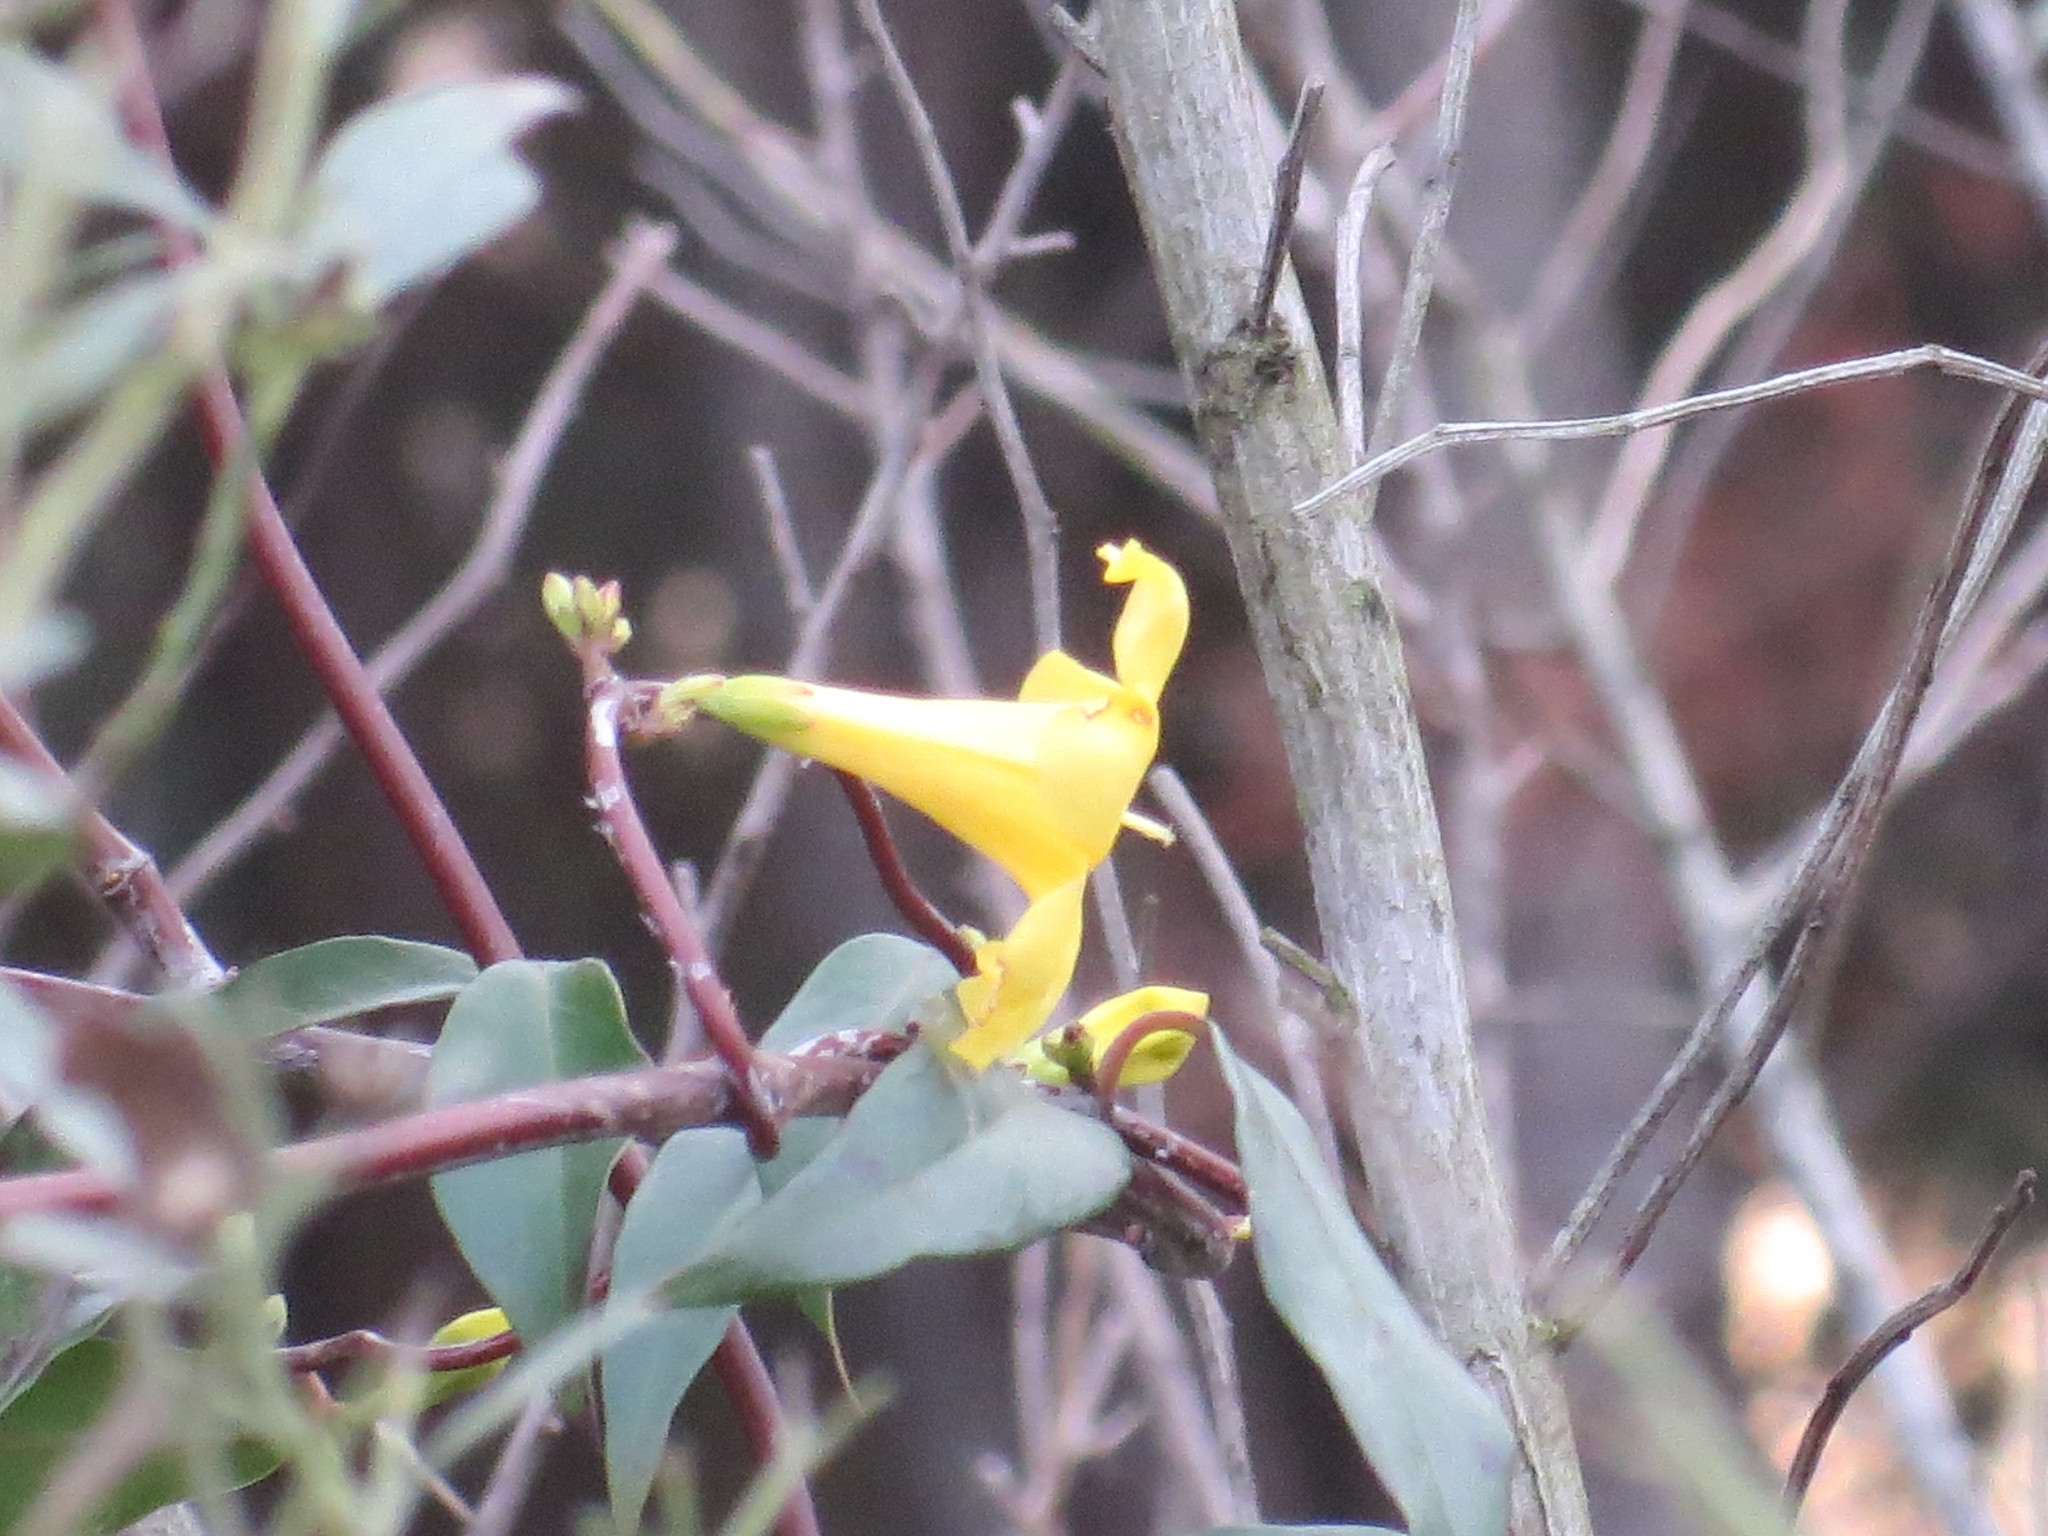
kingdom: Plantae
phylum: Tracheophyta
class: Magnoliopsida
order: Gentianales
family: Gelsemiaceae
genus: Gelsemium
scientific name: Gelsemium sempervirens
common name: Carolina-jasmine
